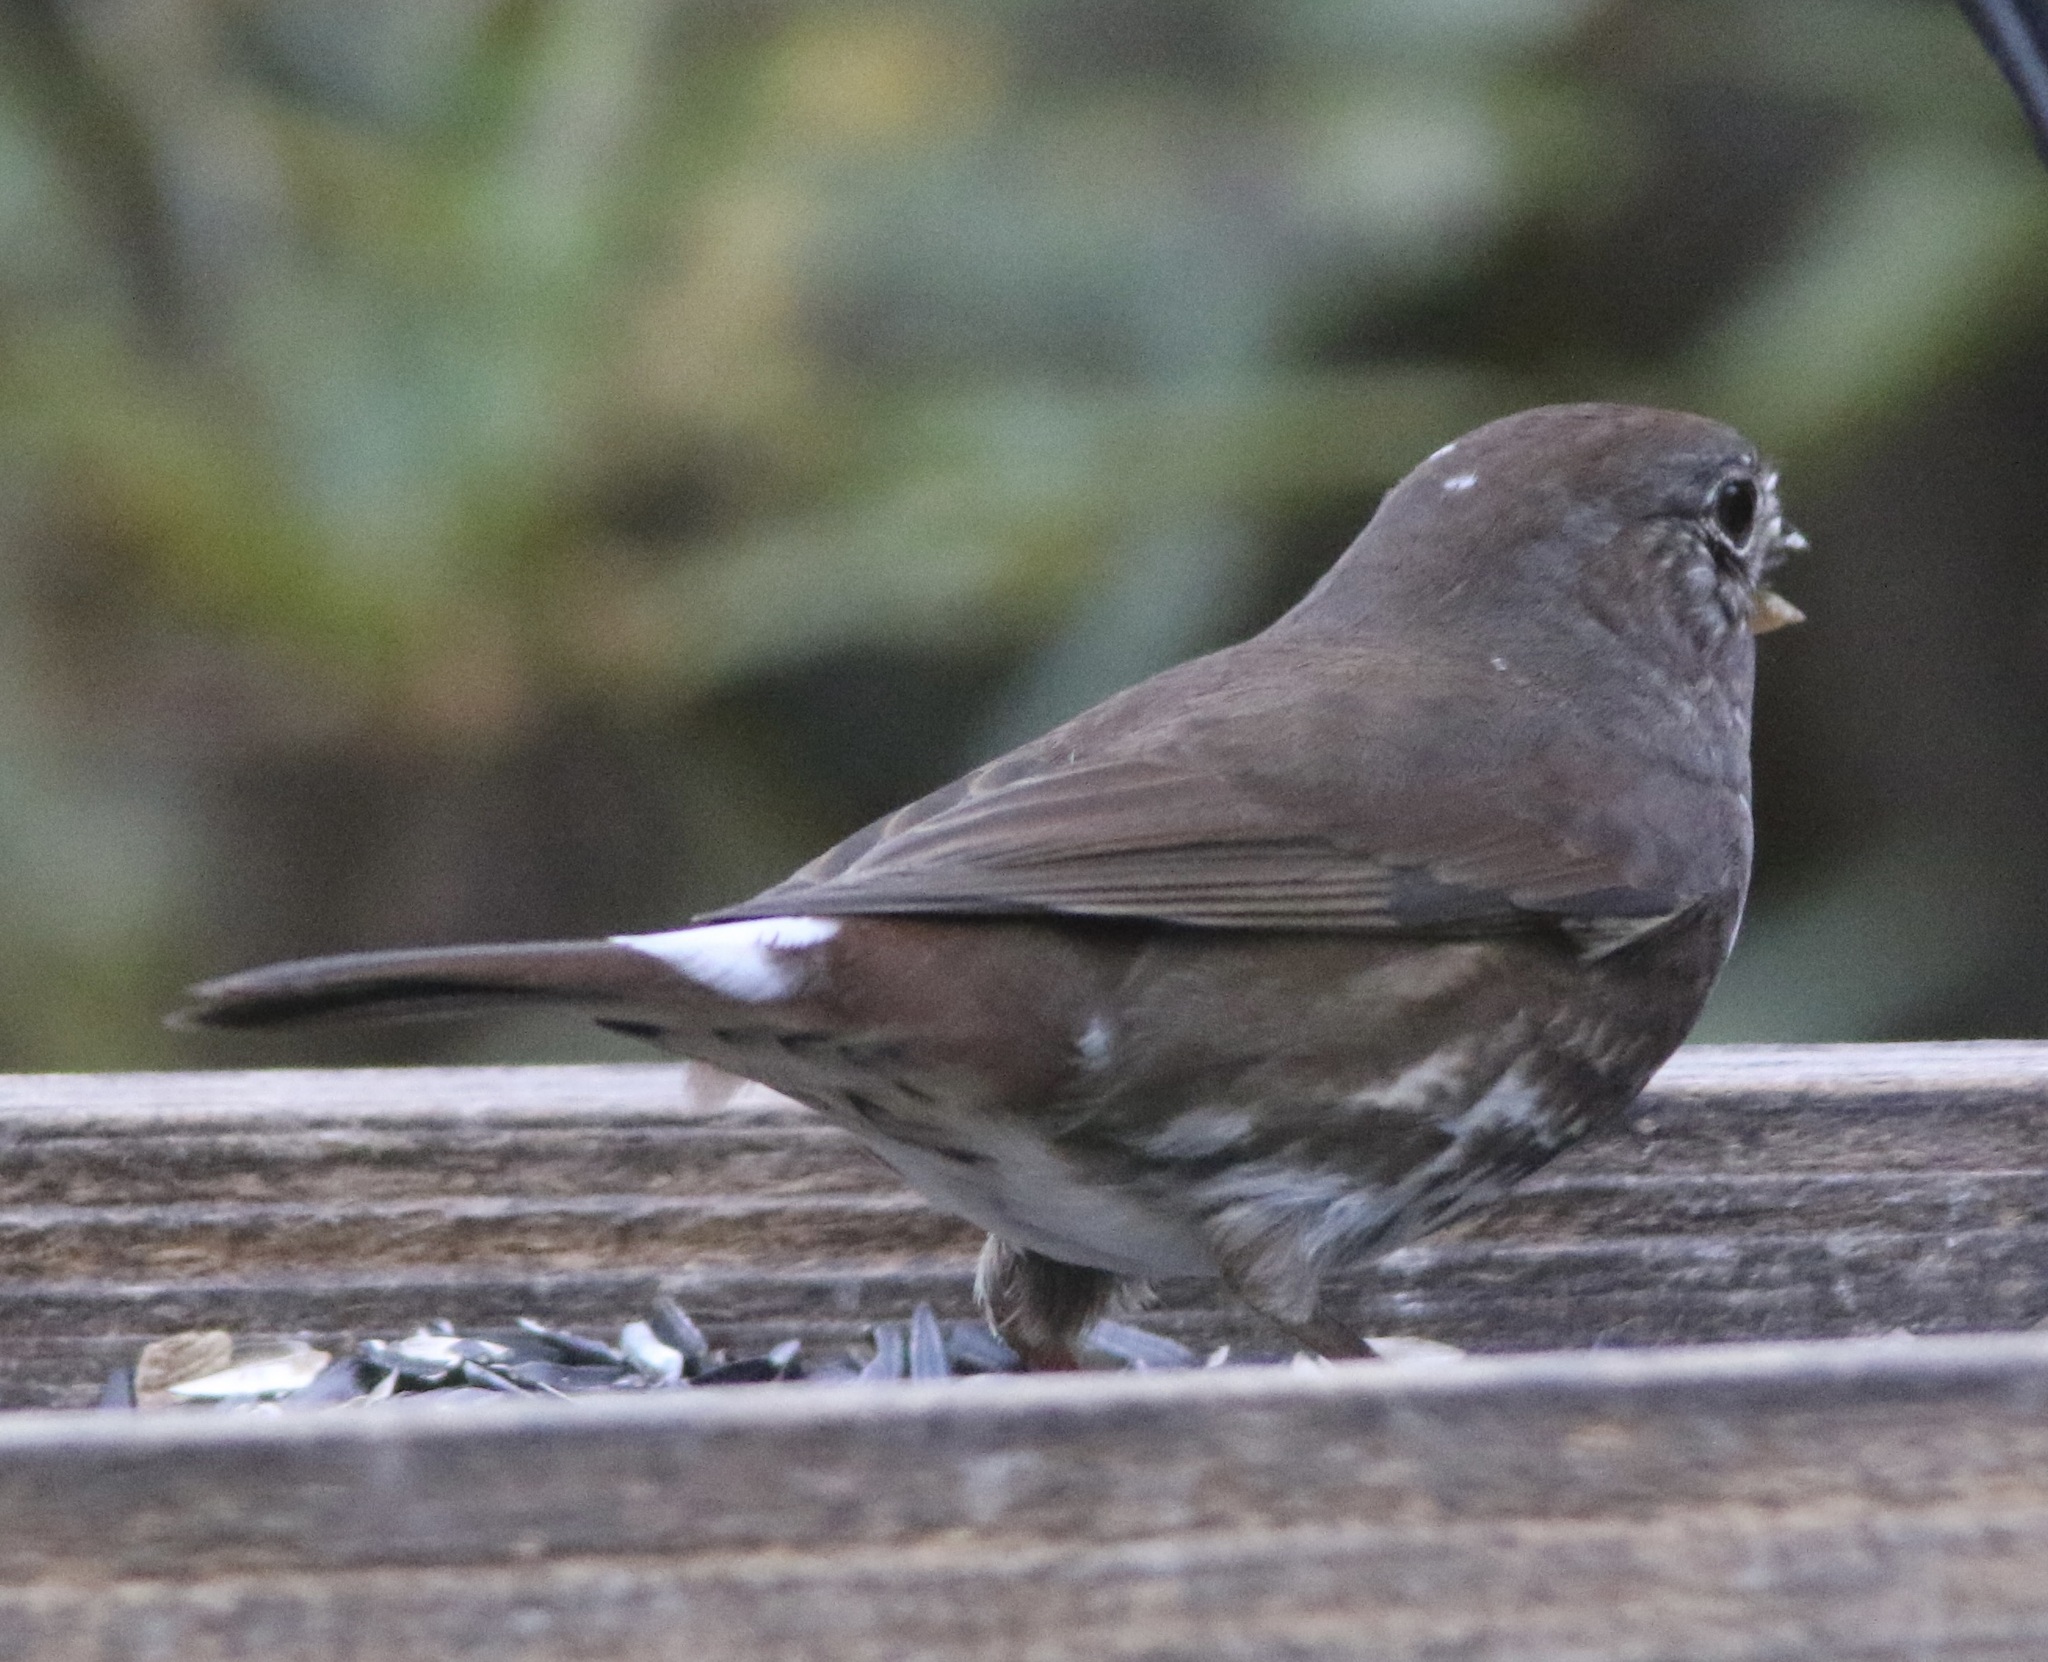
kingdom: Animalia
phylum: Chordata
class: Aves
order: Passeriformes
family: Passerellidae
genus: Passerella
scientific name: Passerella iliaca
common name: Fox sparrow
